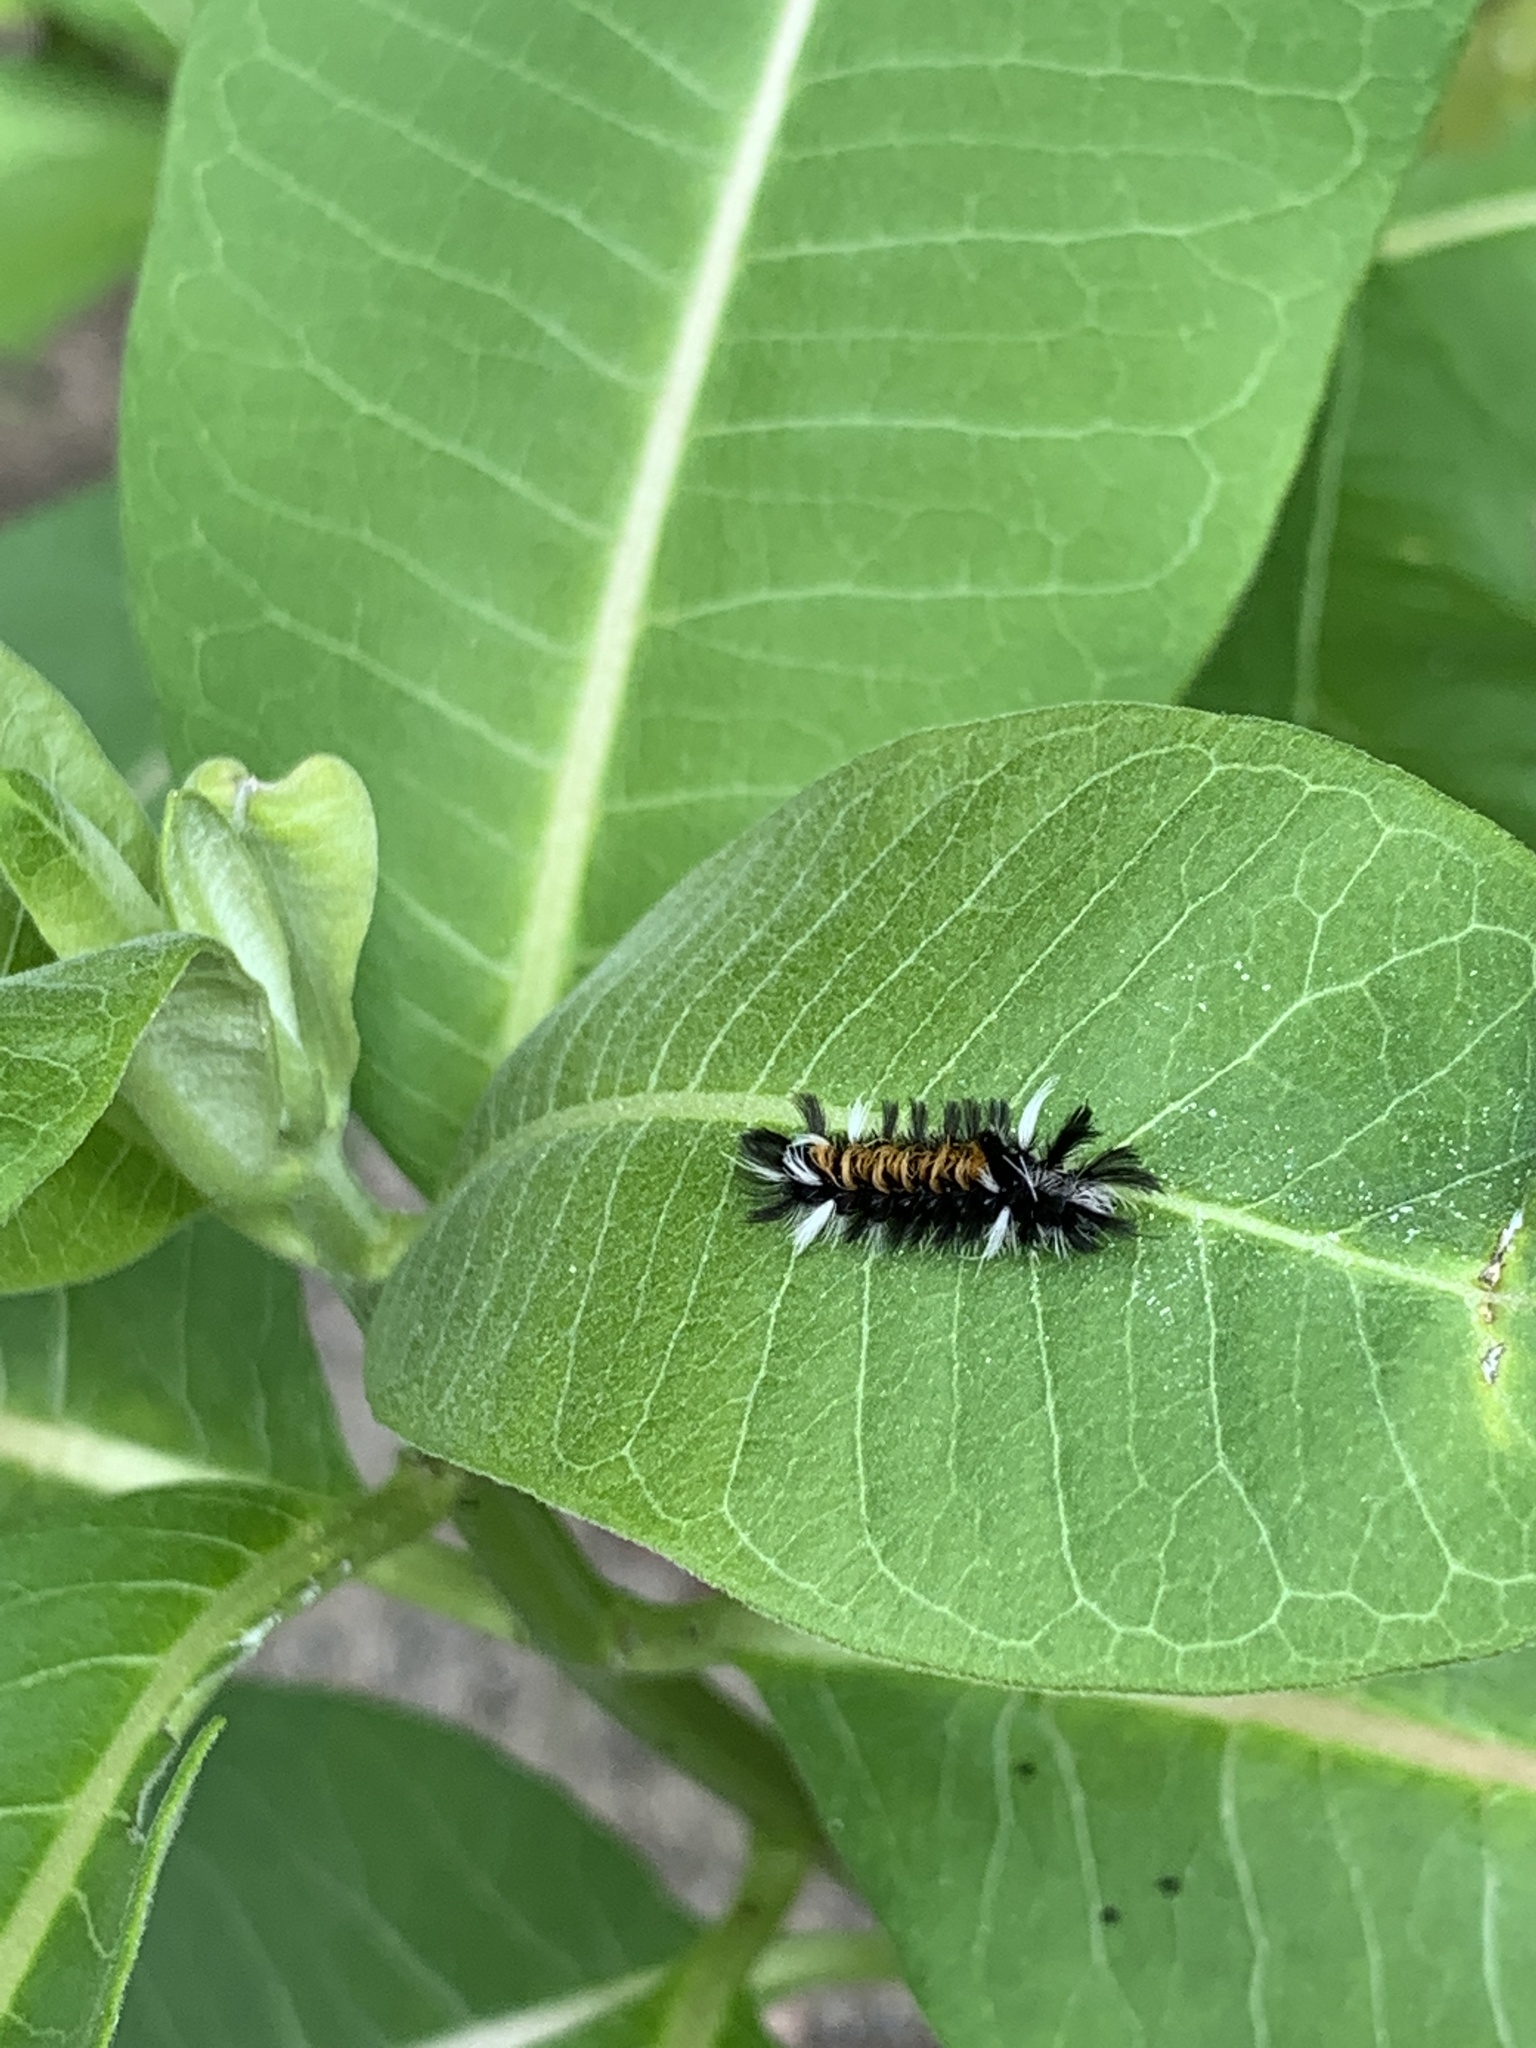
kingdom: Animalia
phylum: Arthropoda
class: Insecta
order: Lepidoptera
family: Erebidae
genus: Euchaetes
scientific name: Euchaetes egle
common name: Milkweed tussock moth
